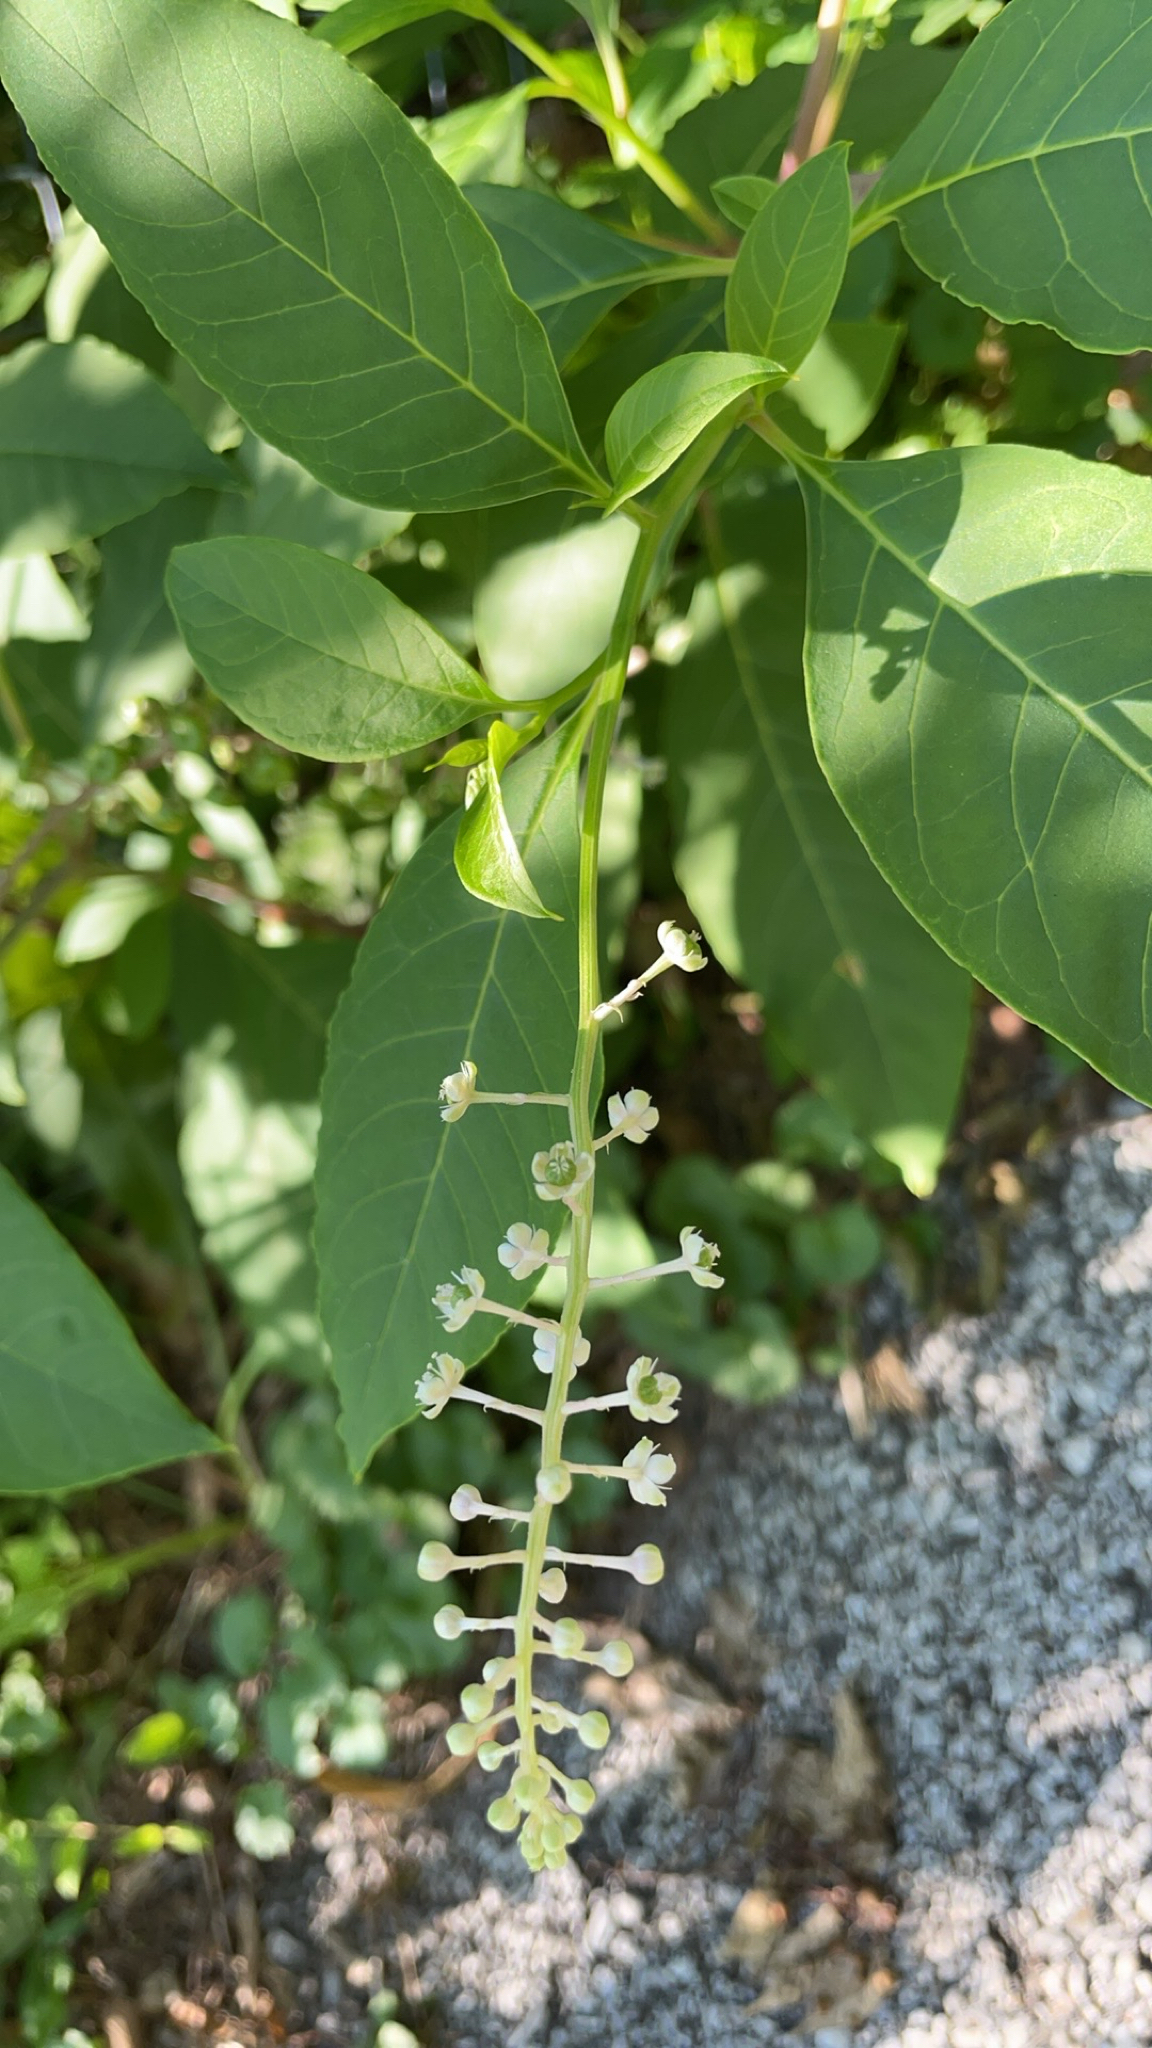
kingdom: Plantae
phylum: Tracheophyta
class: Magnoliopsida
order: Caryophyllales
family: Phytolaccaceae
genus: Phytolacca
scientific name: Phytolacca americana
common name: American pokeweed
